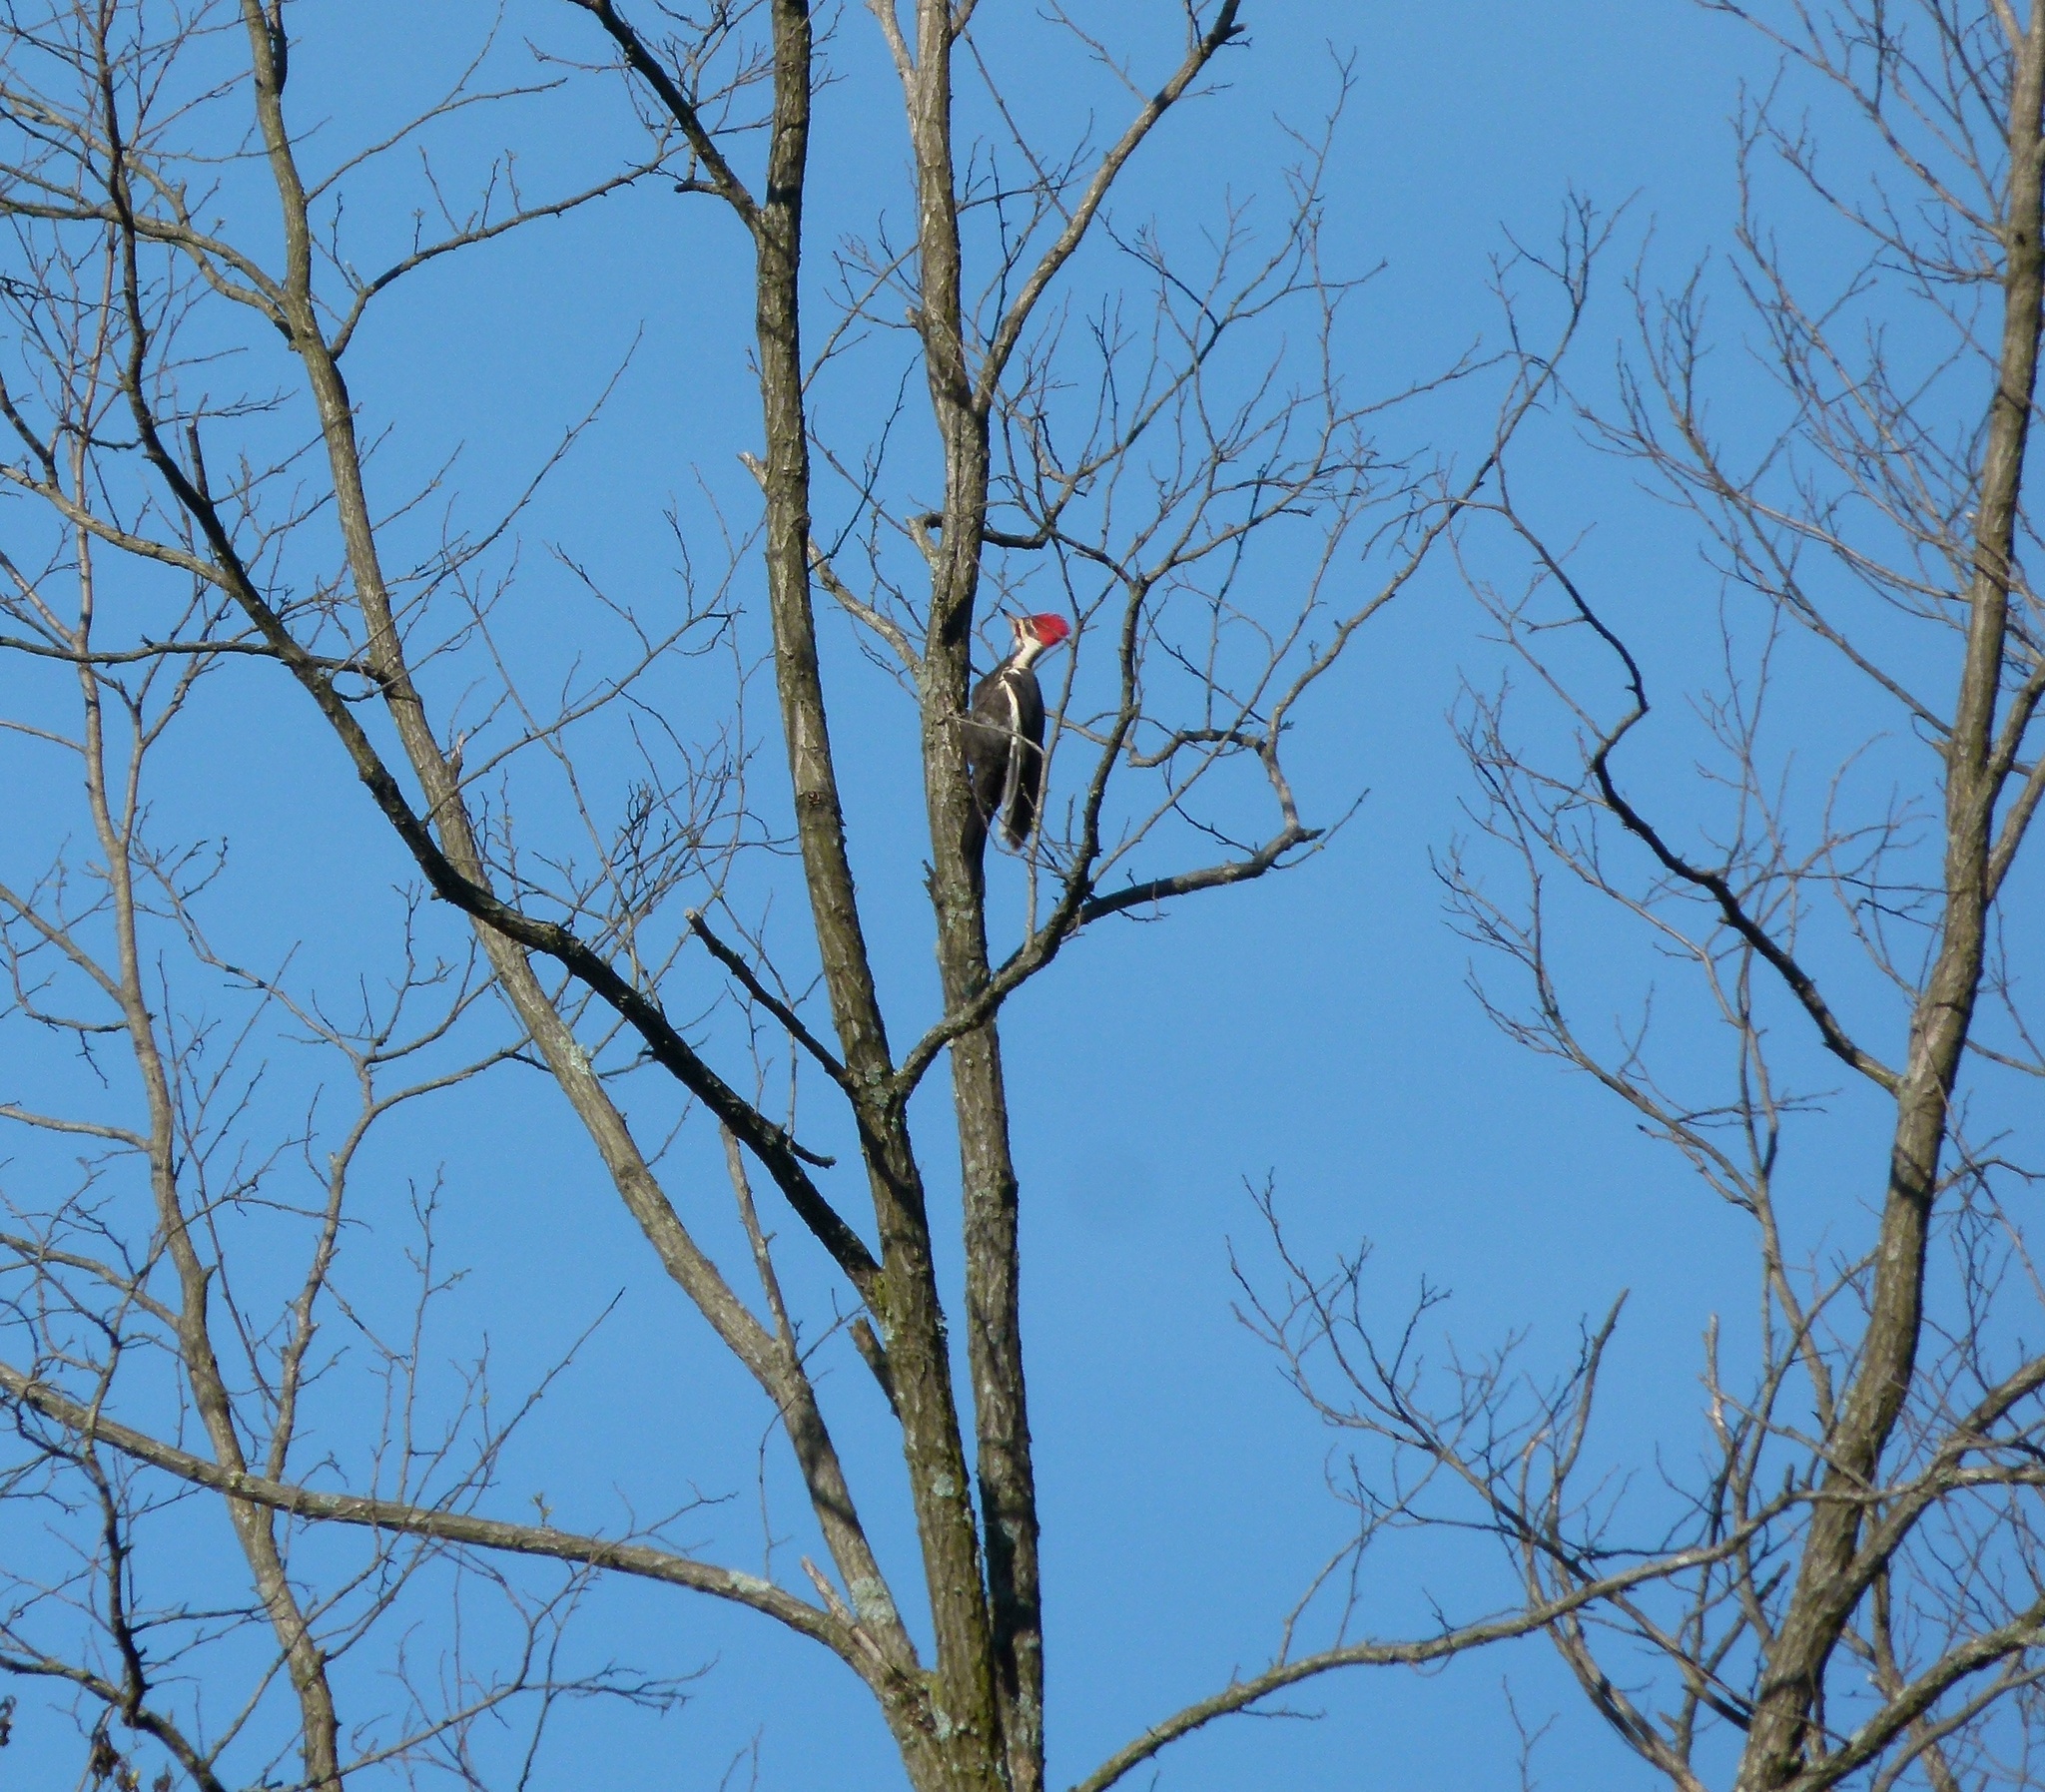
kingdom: Animalia
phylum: Chordata
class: Aves
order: Piciformes
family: Picidae
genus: Dryocopus
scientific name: Dryocopus pileatus
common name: Pileated woodpecker
